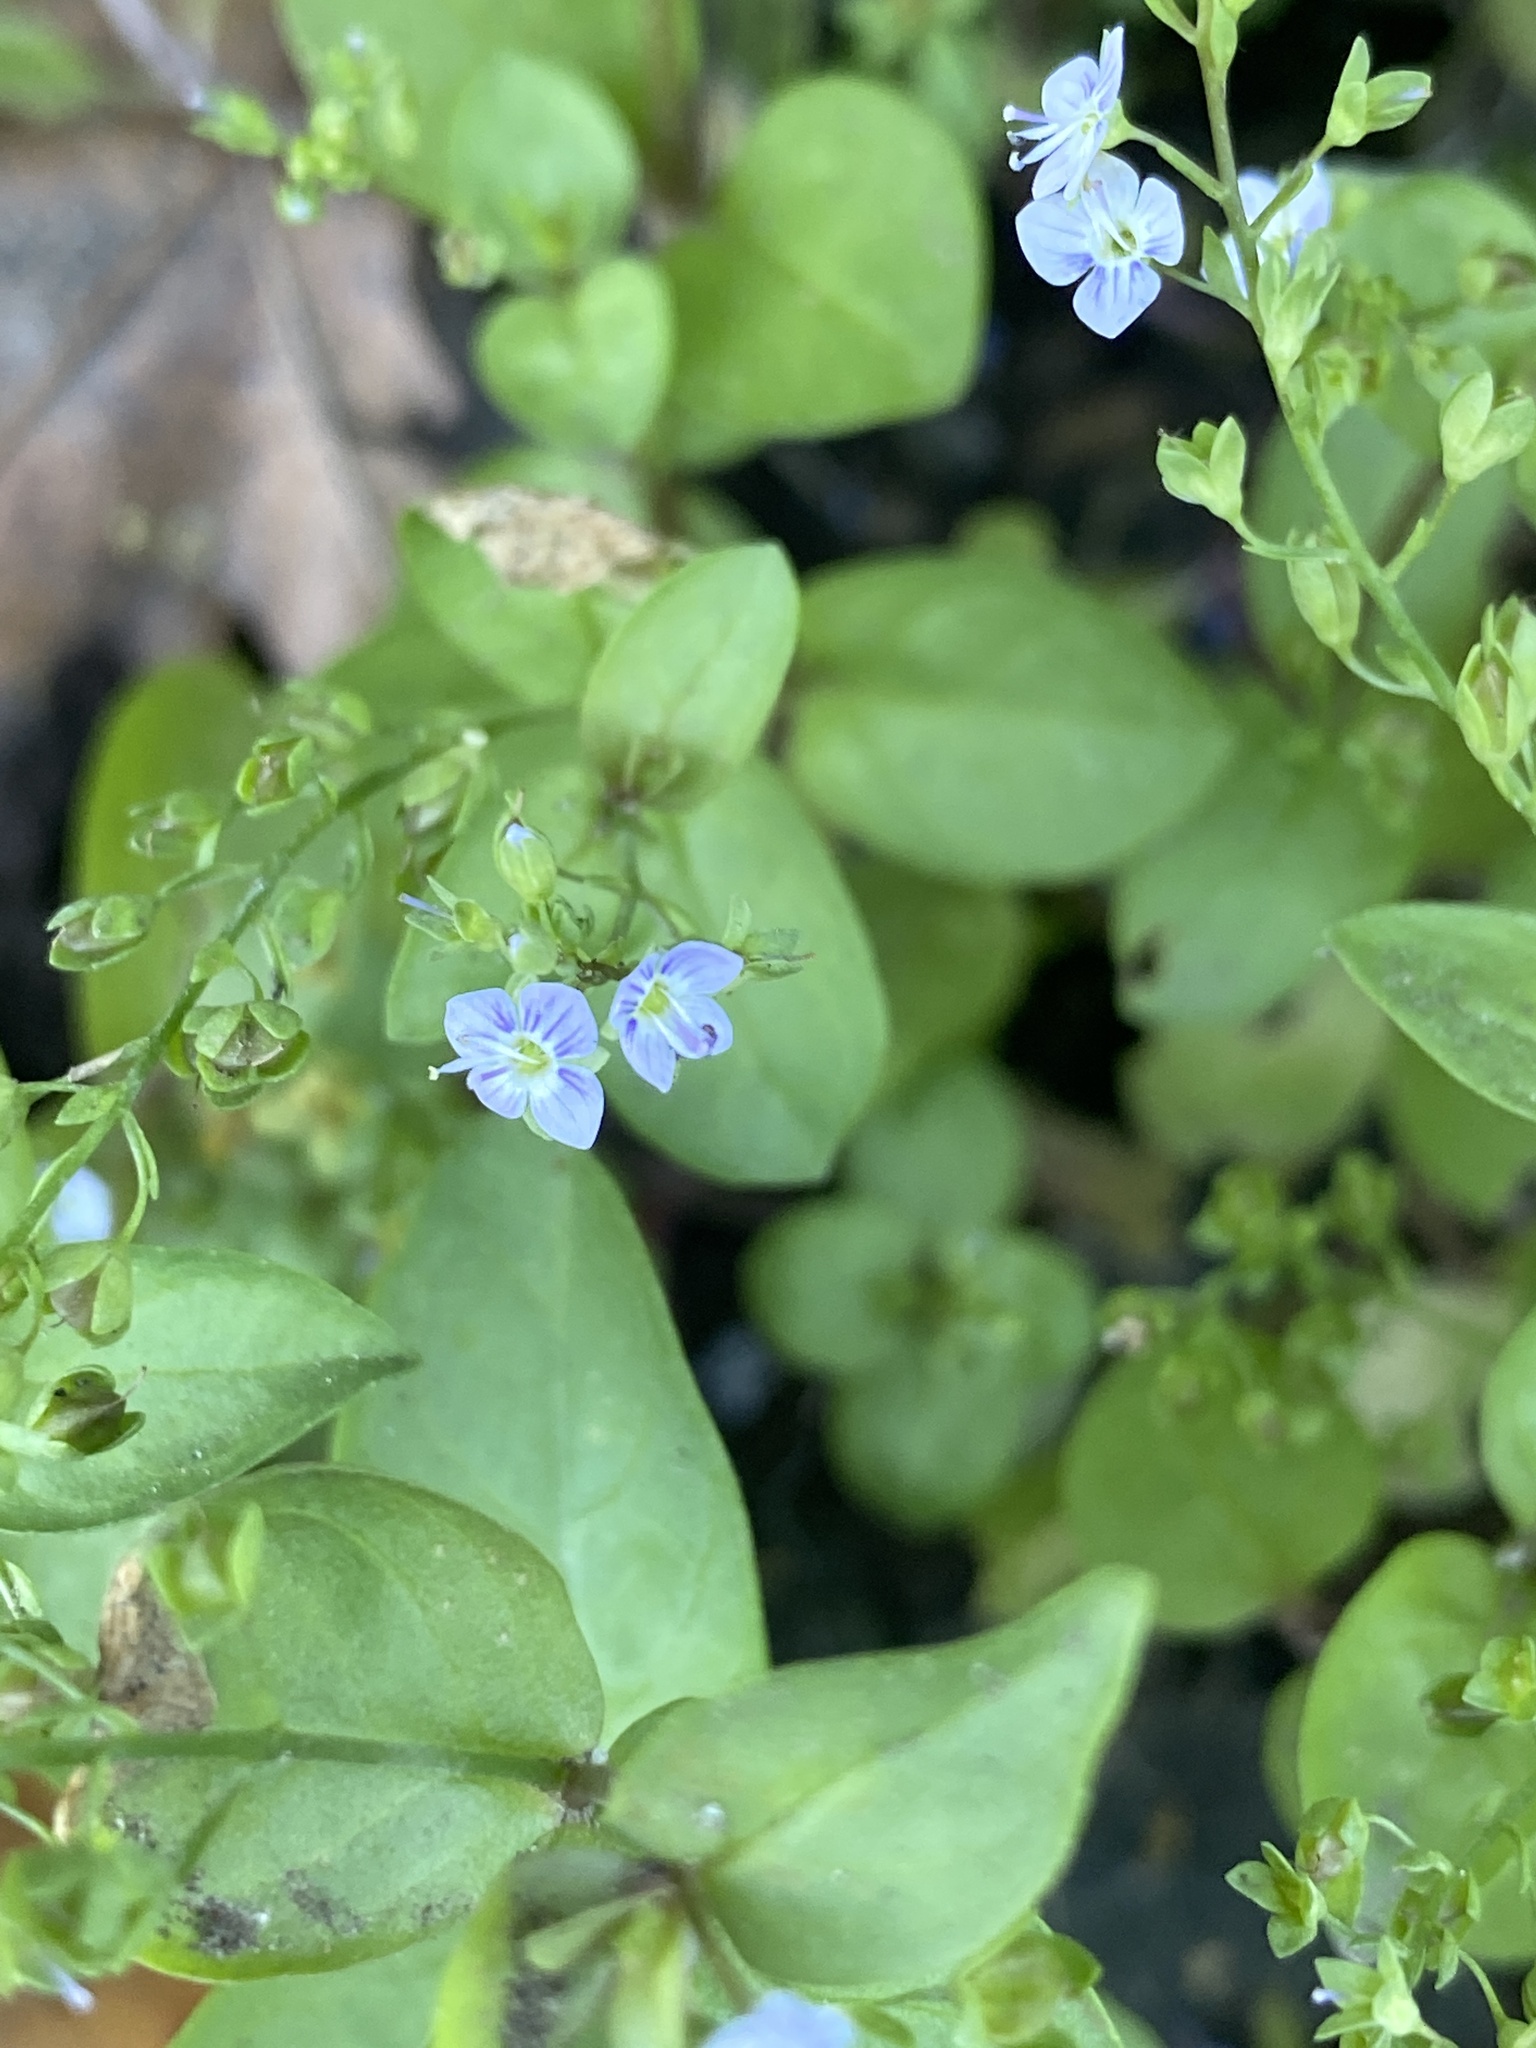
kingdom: Plantae
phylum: Tracheophyta
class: Magnoliopsida
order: Lamiales
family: Plantaginaceae
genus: Veronica
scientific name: Veronica anagallis-aquatica
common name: Water speedwell
